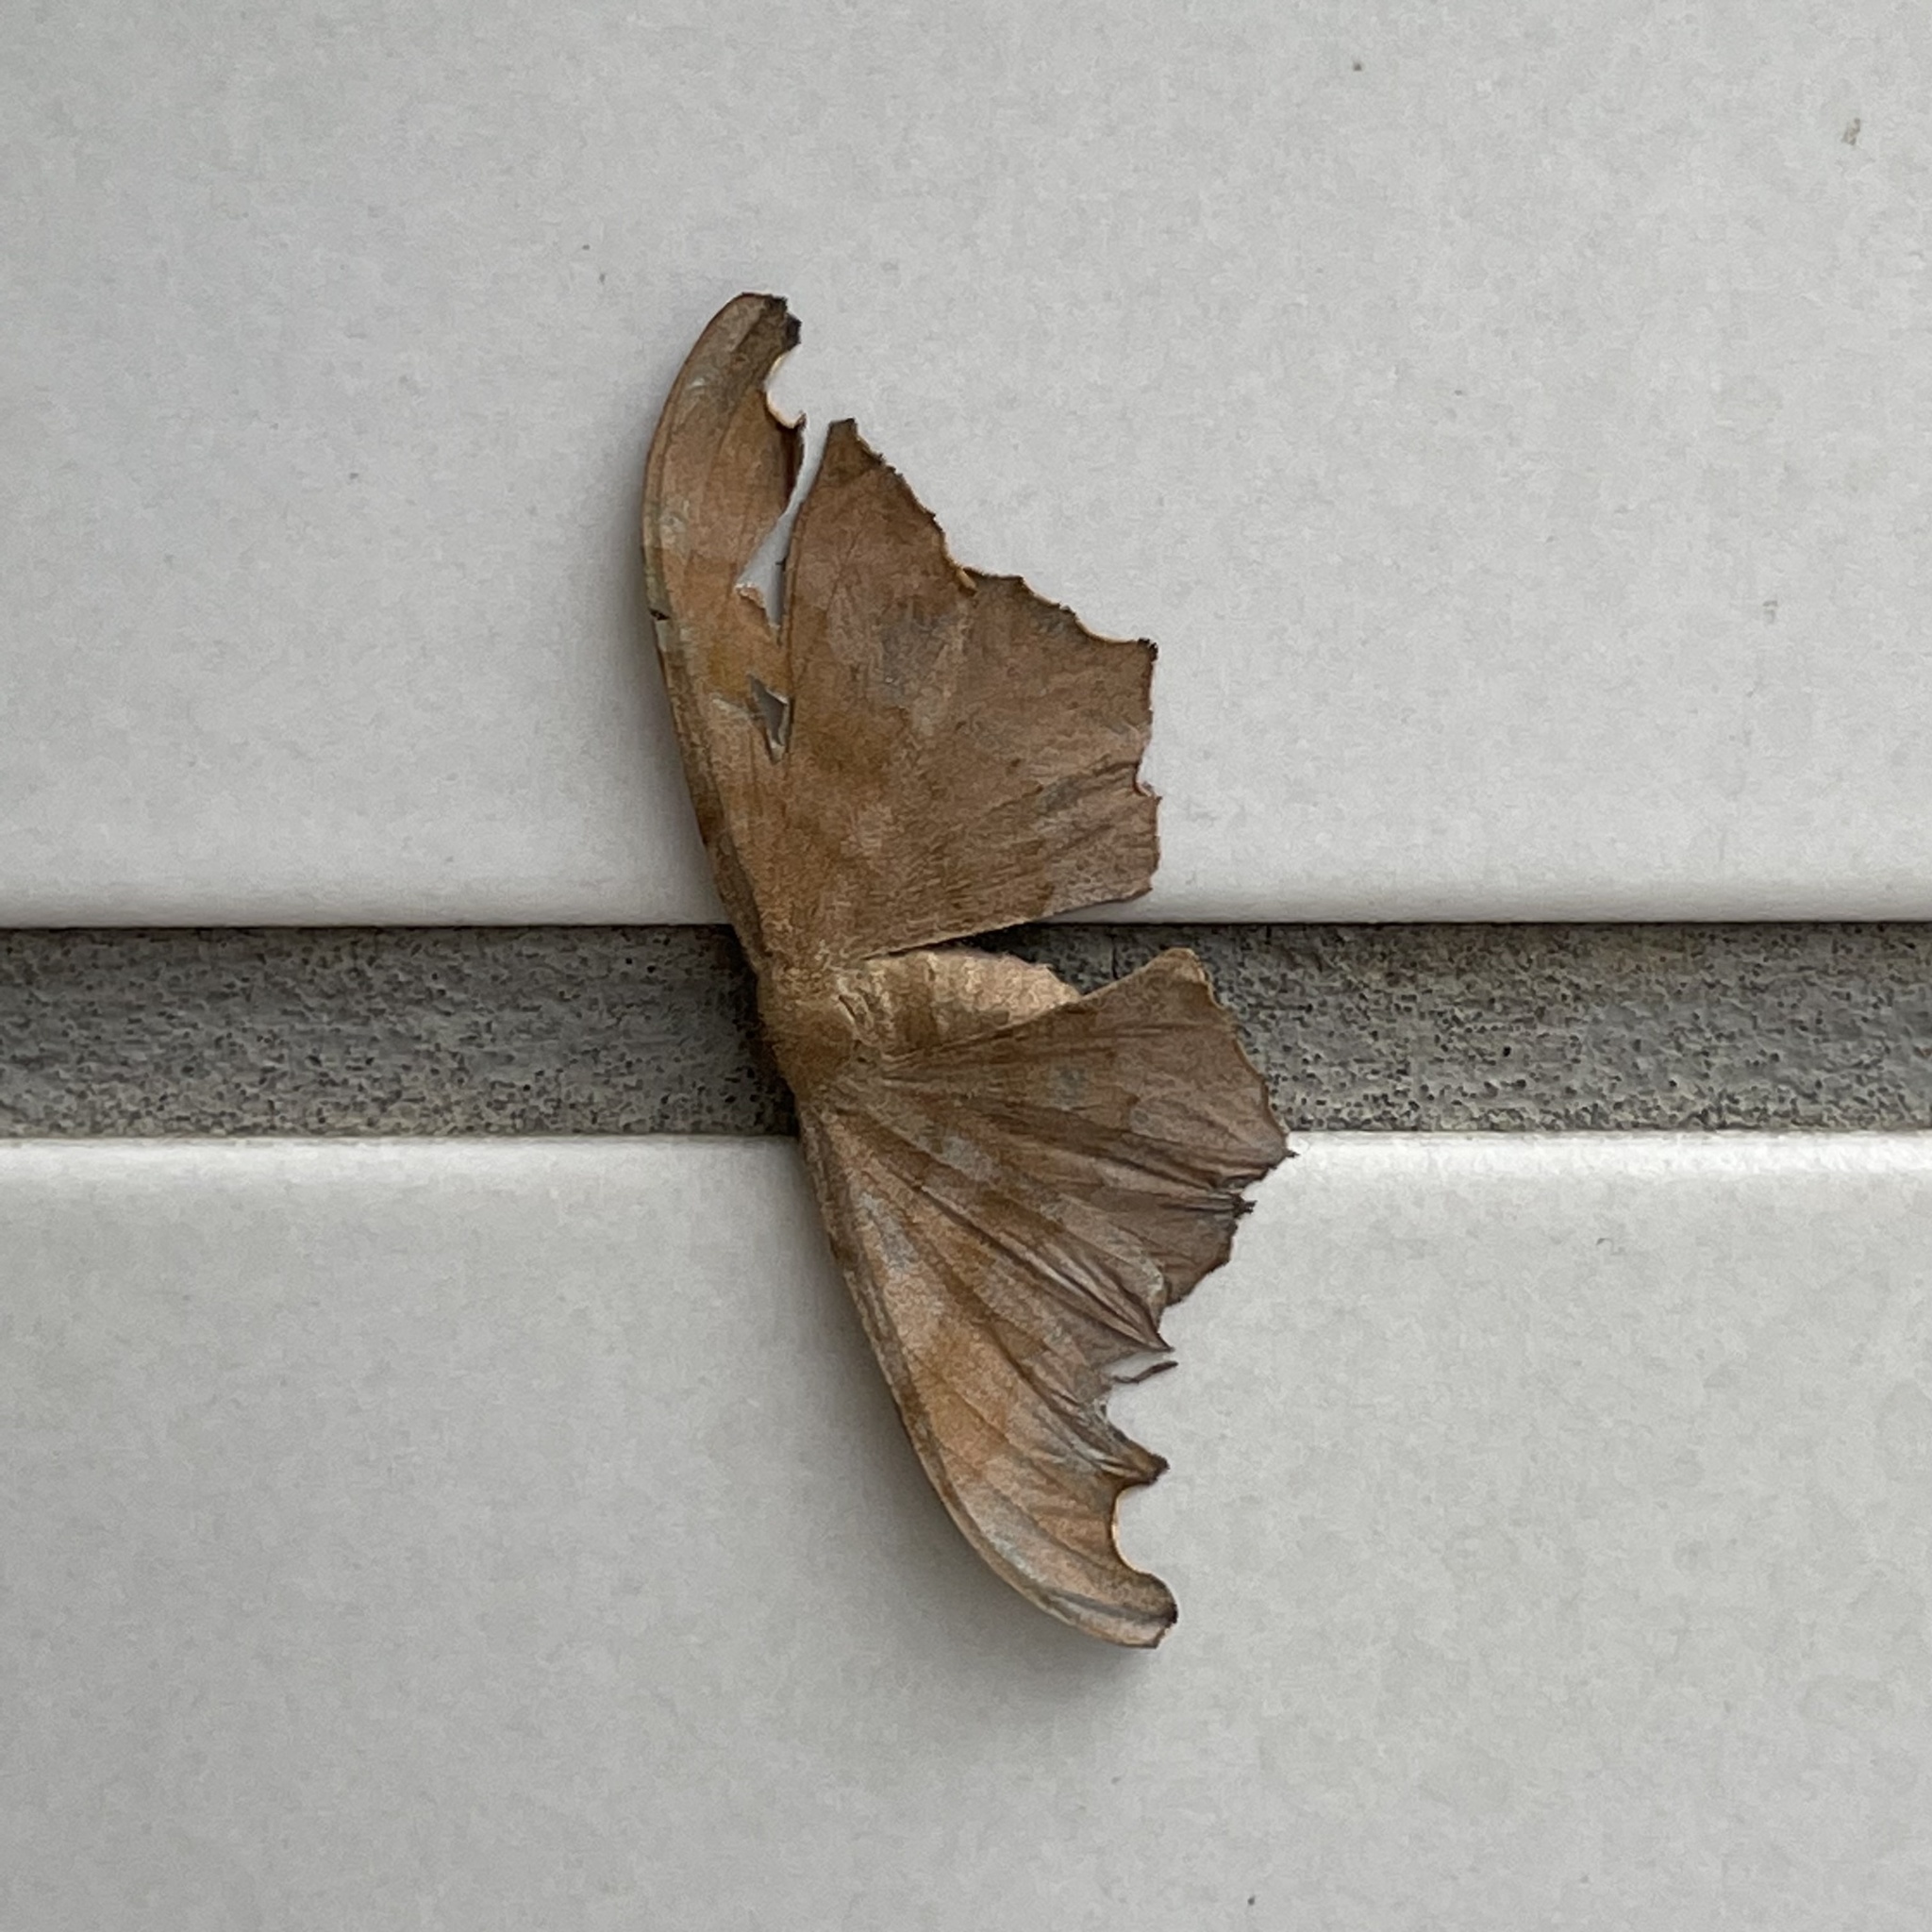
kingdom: Animalia
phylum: Arthropoda
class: Insecta
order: Lepidoptera
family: Geometridae
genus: Hyposidra
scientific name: Hyposidra talaca
